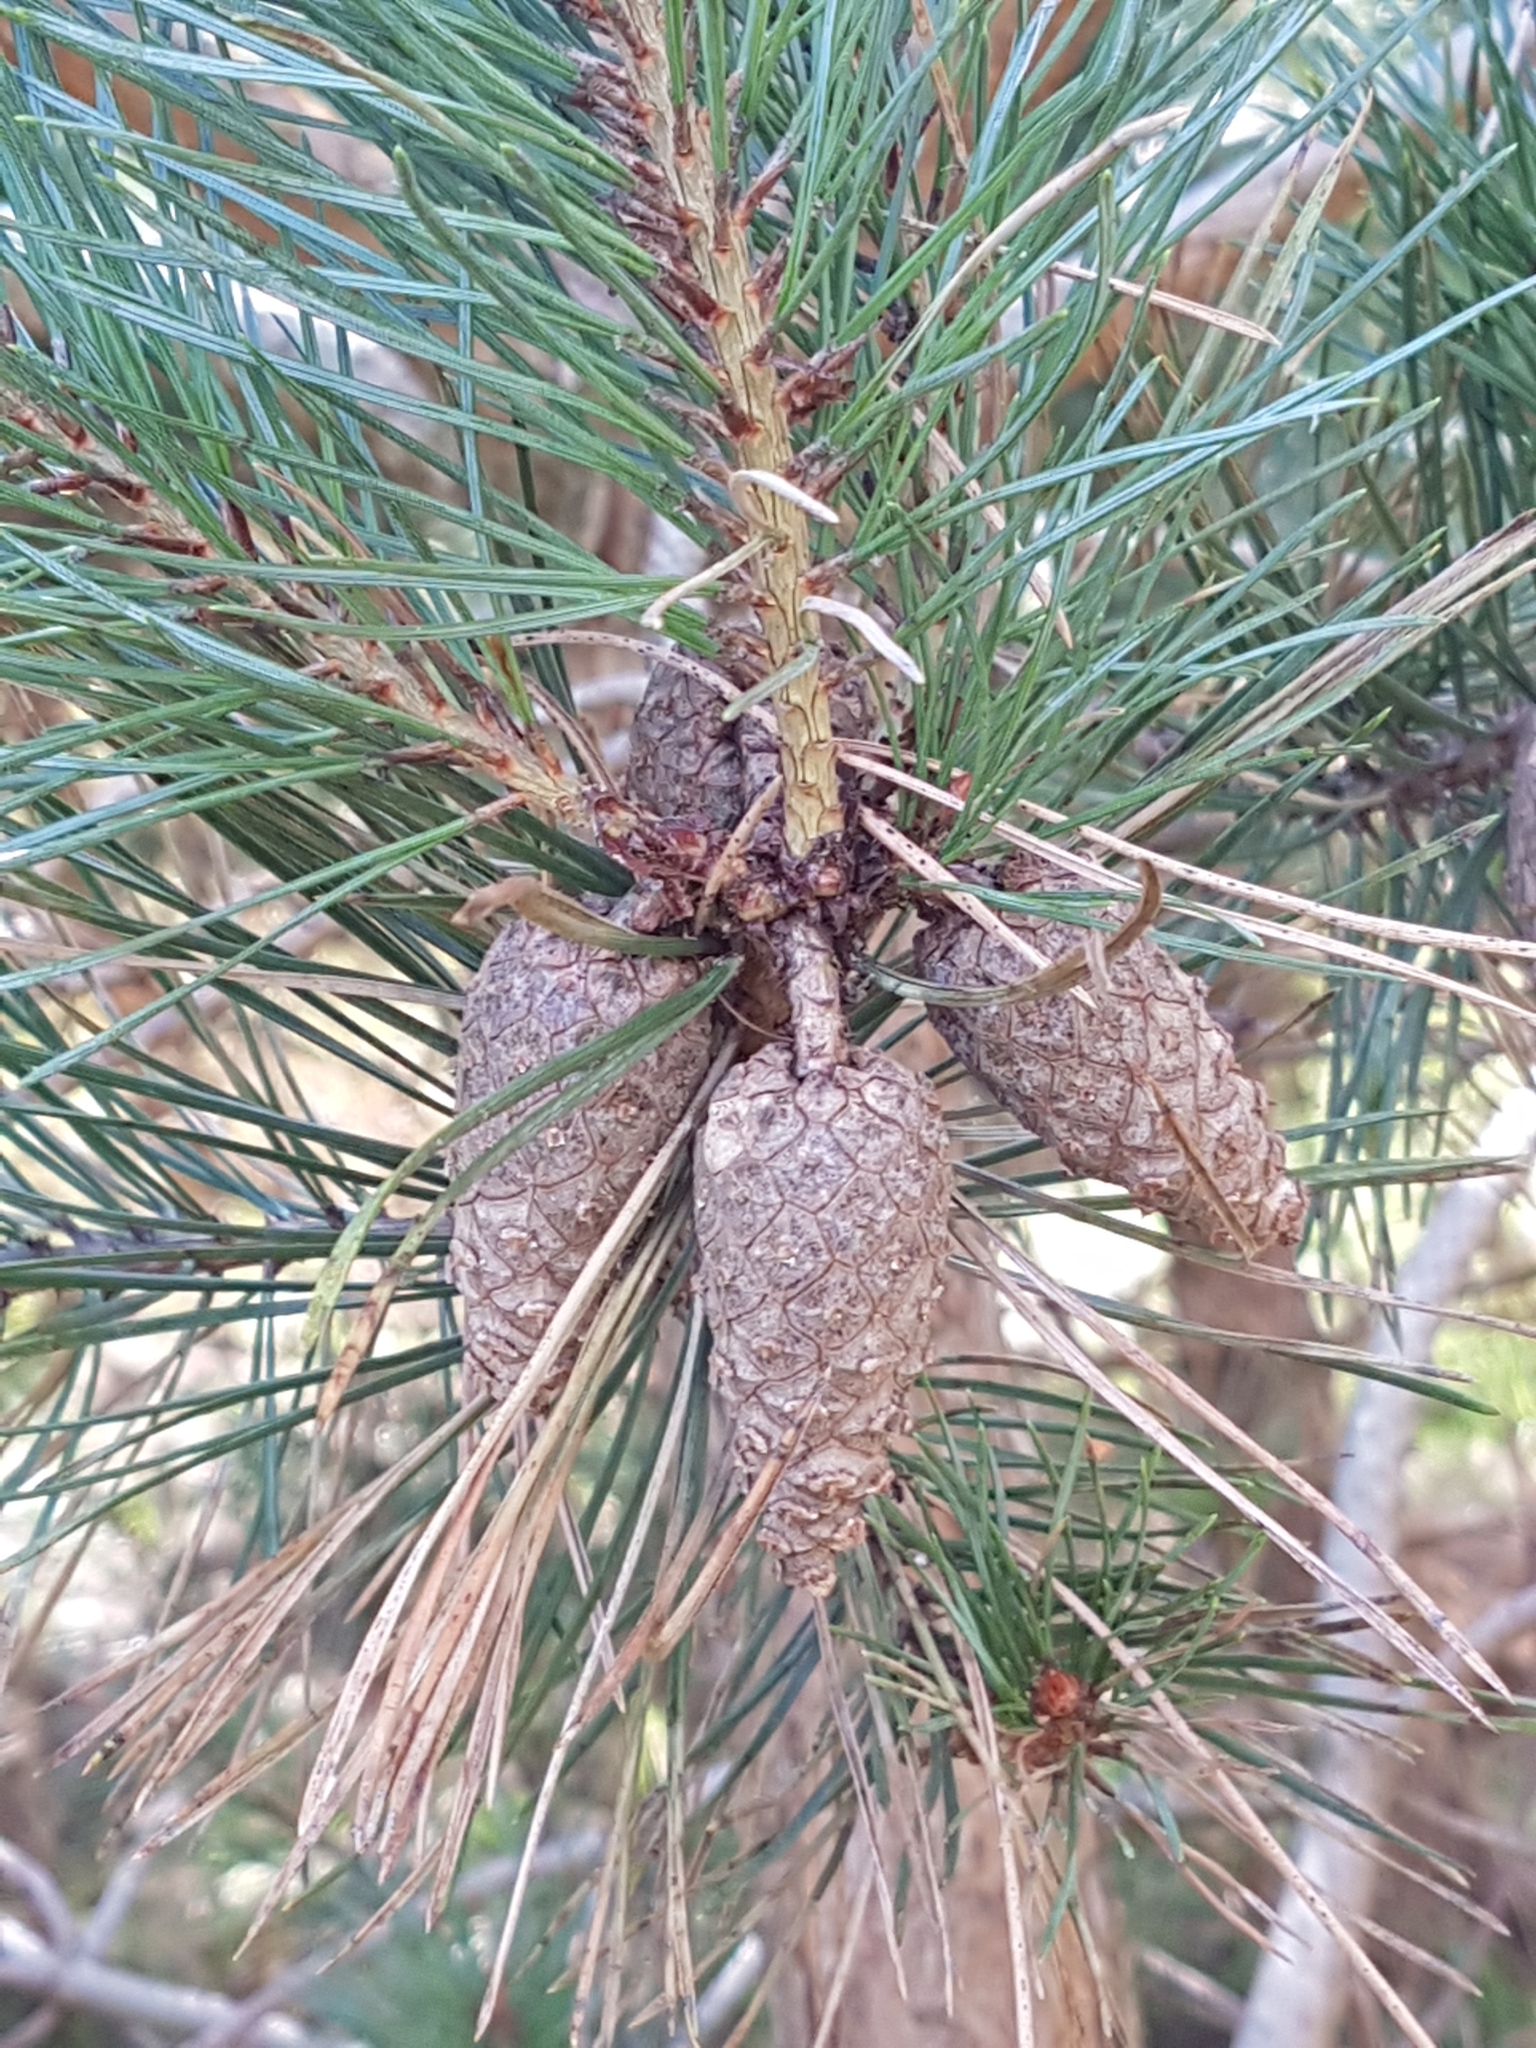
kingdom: Plantae
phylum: Tracheophyta
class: Pinopsida
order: Pinales
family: Pinaceae
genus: Pinus
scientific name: Pinus sylvestris
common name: Scots pine
